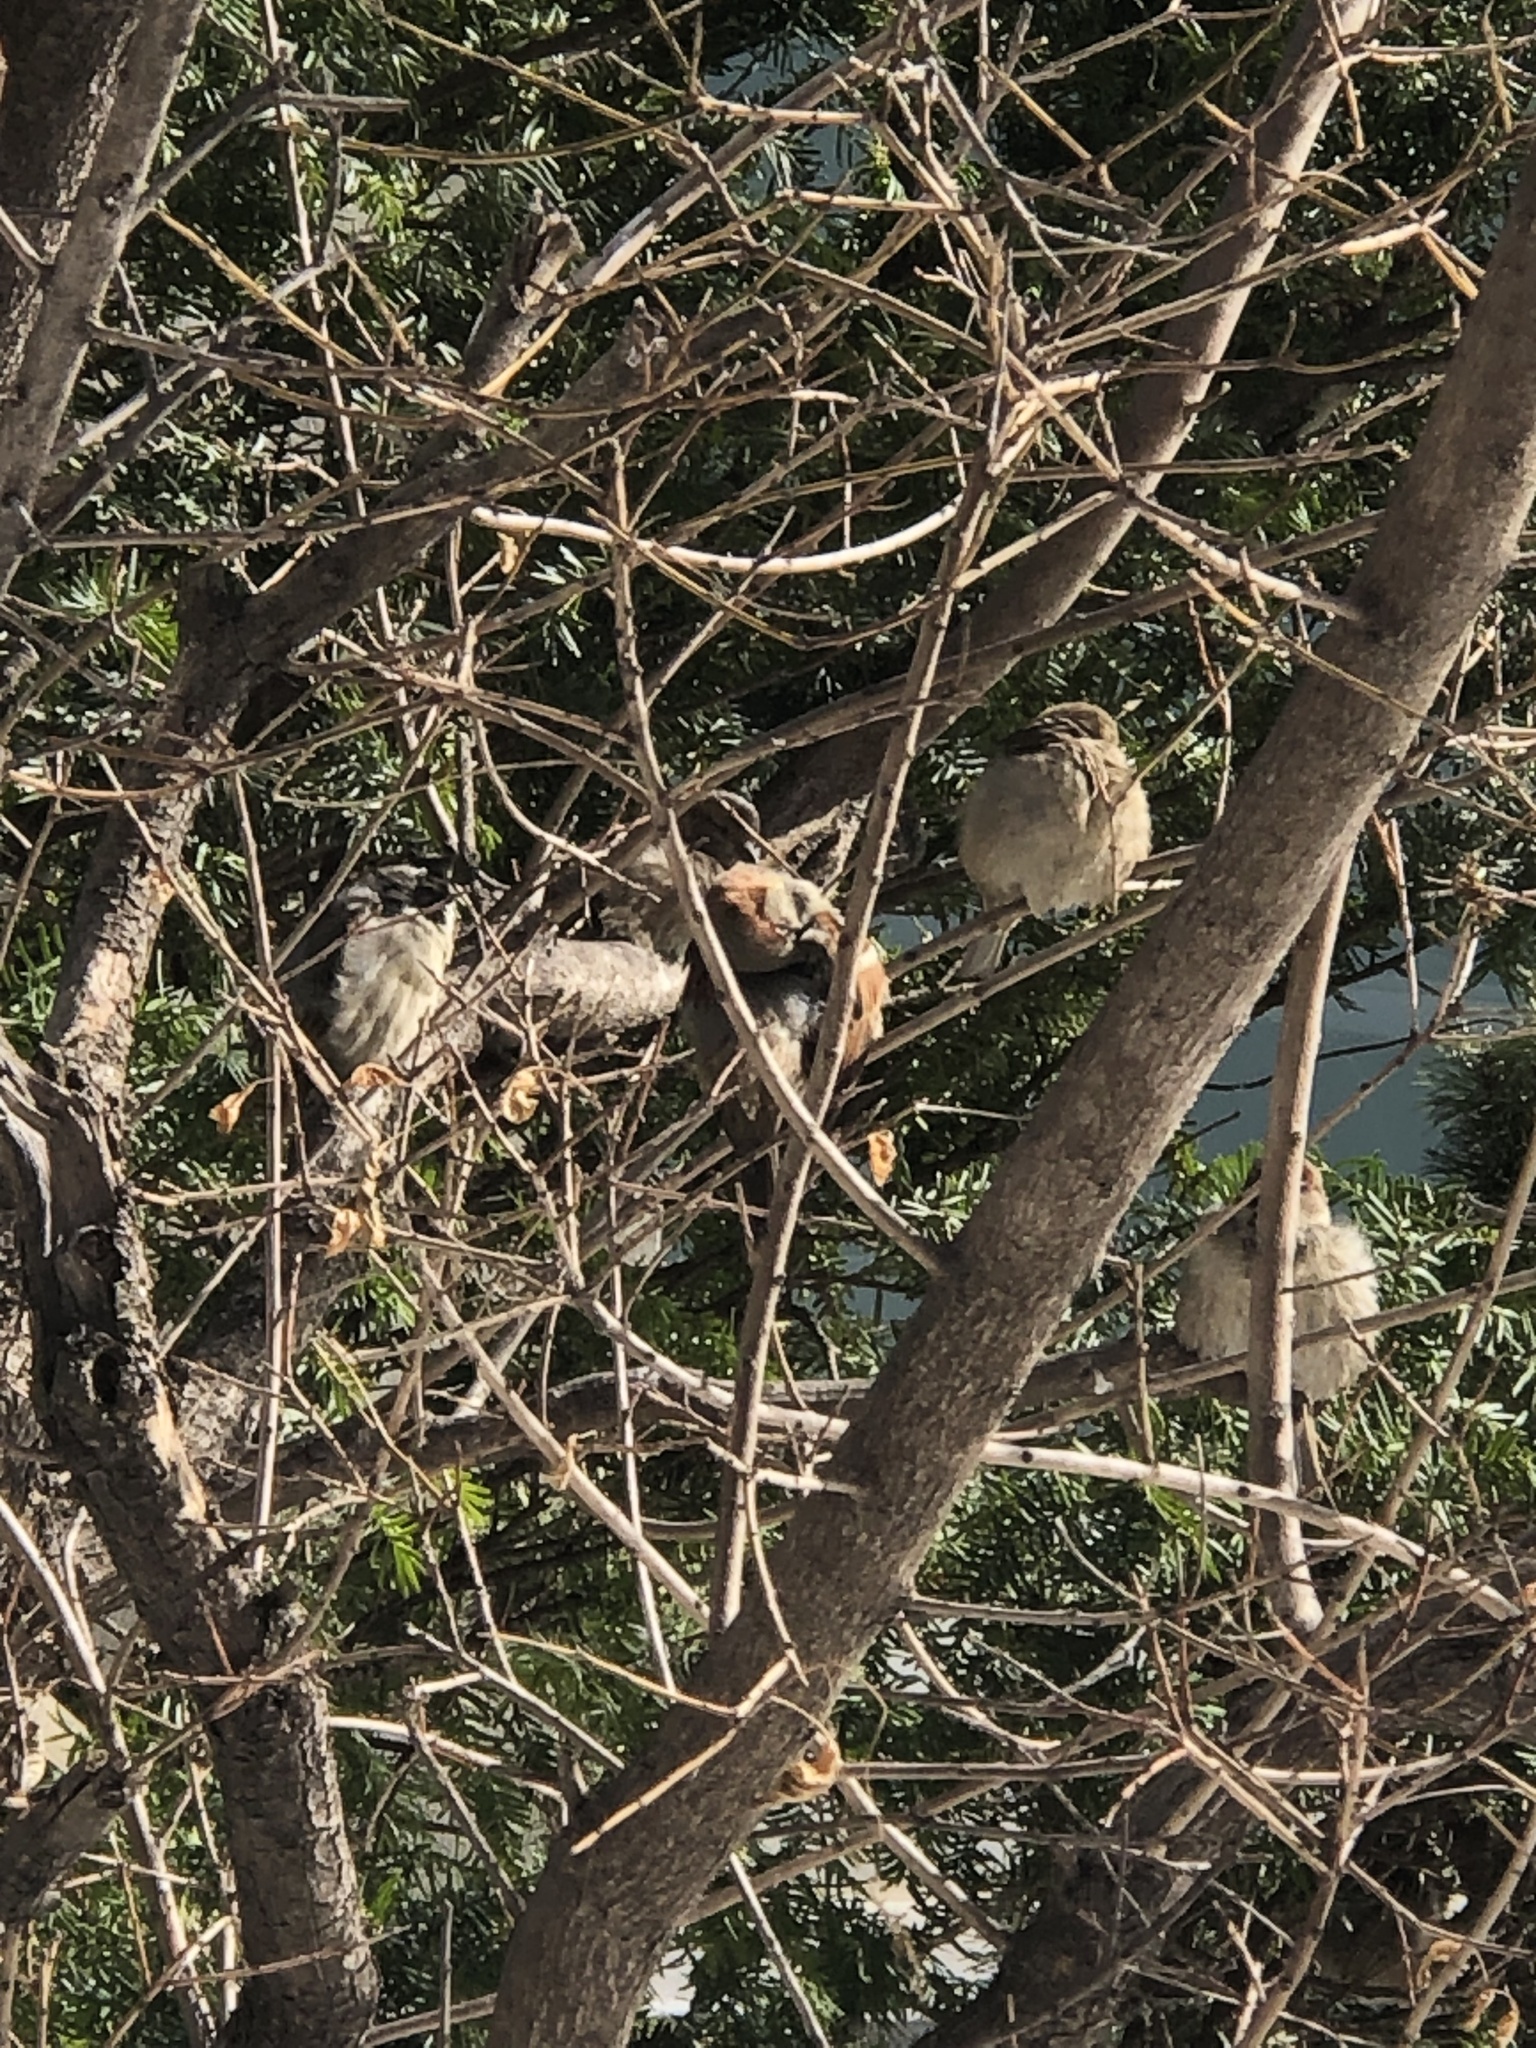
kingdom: Animalia
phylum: Chordata
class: Aves
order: Passeriformes
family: Passeridae
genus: Passer
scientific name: Passer domesticus
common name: House sparrow
